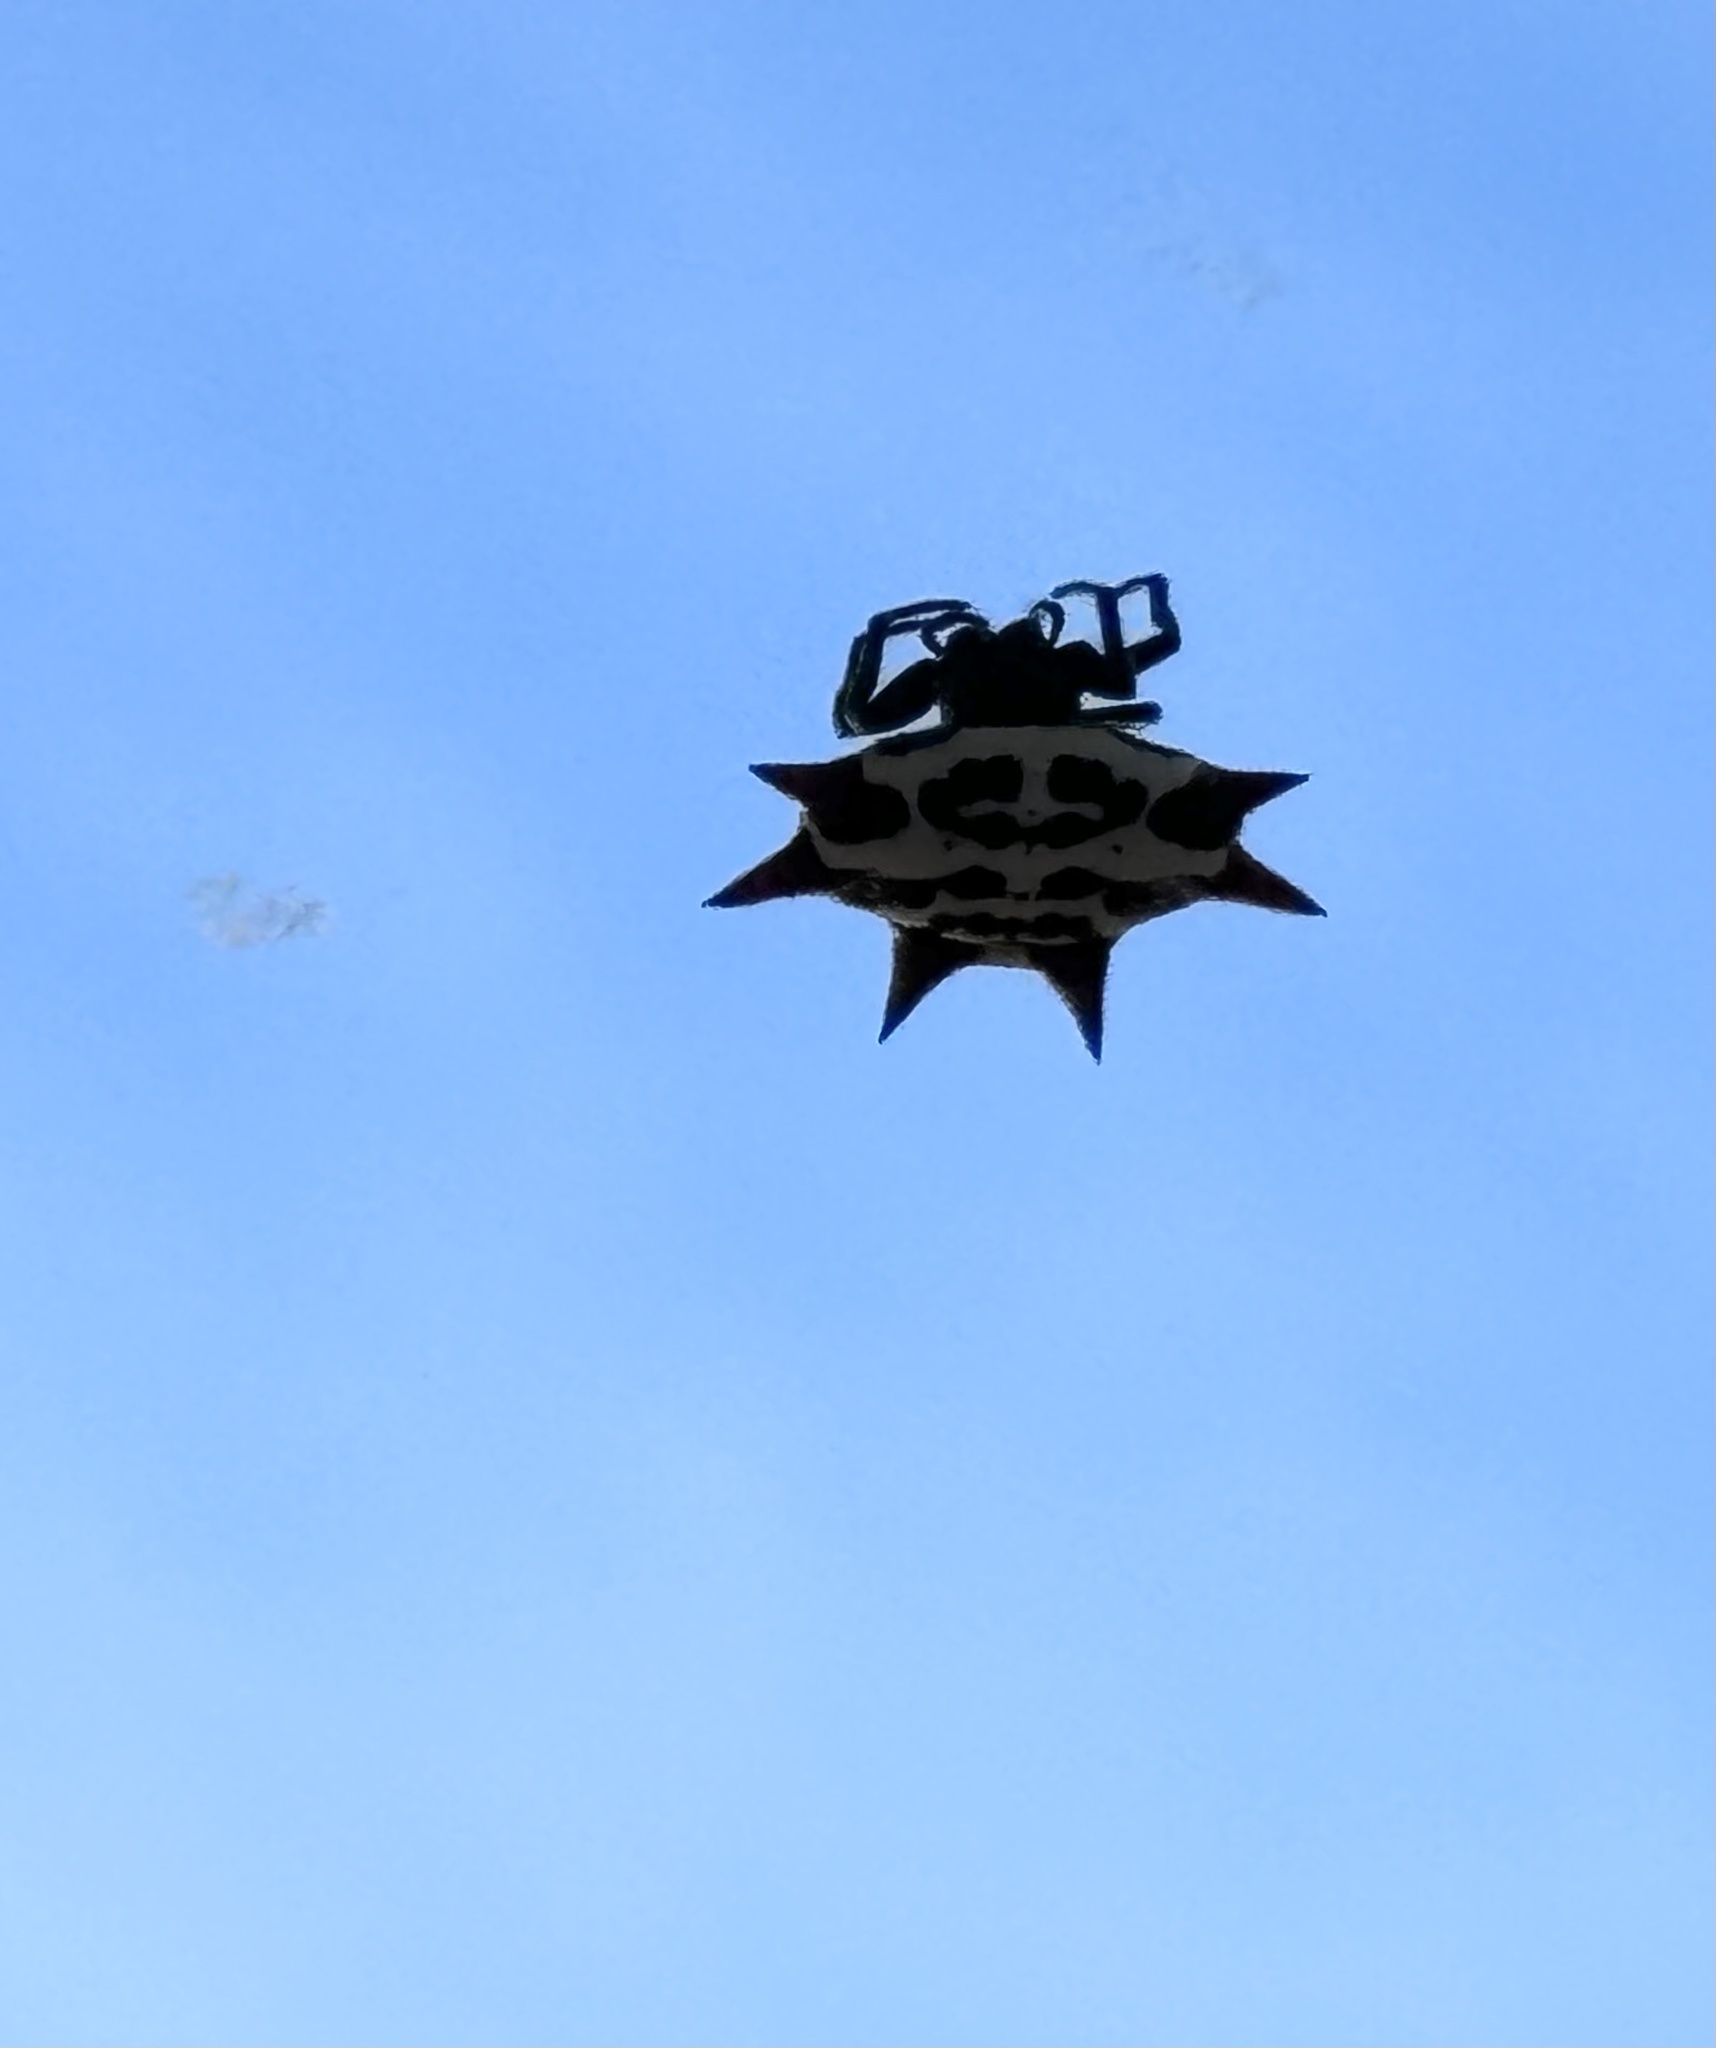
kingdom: Animalia
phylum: Arthropoda
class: Arachnida
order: Araneae
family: Araneidae
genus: Gasteracantha
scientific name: Gasteracantha cancriformis
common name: Orb weavers
